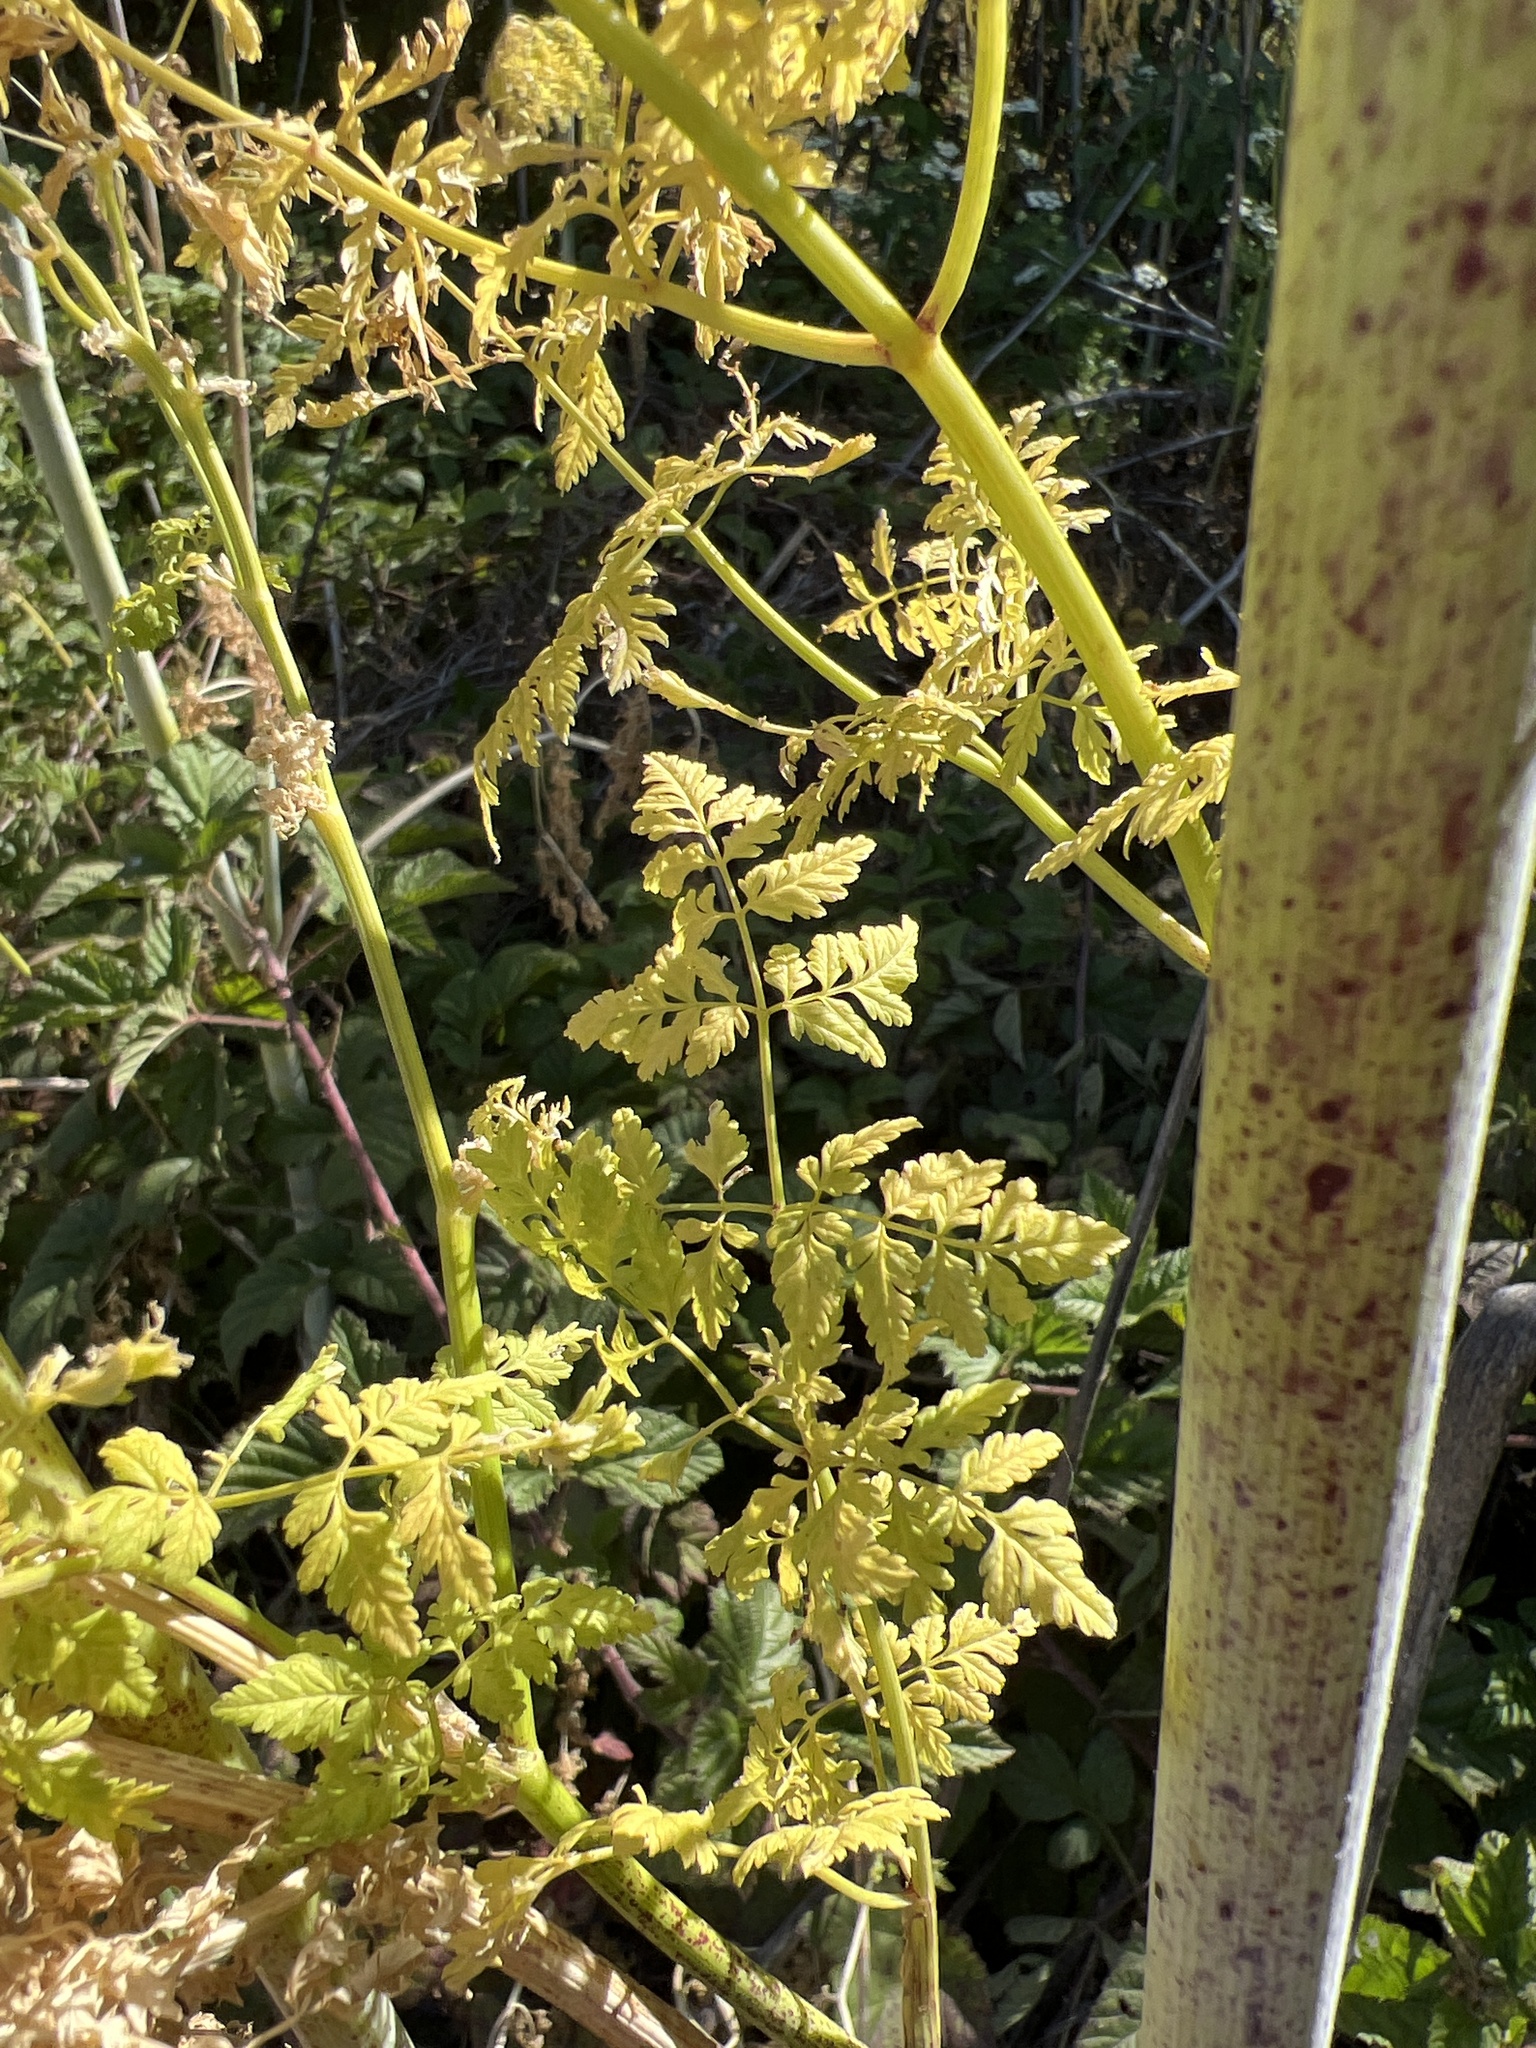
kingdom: Plantae
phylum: Tracheophyta
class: Magnoliopsida
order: Apiales
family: Apiaceae
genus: Conium
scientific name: Conium maculatum
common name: Hemlock
